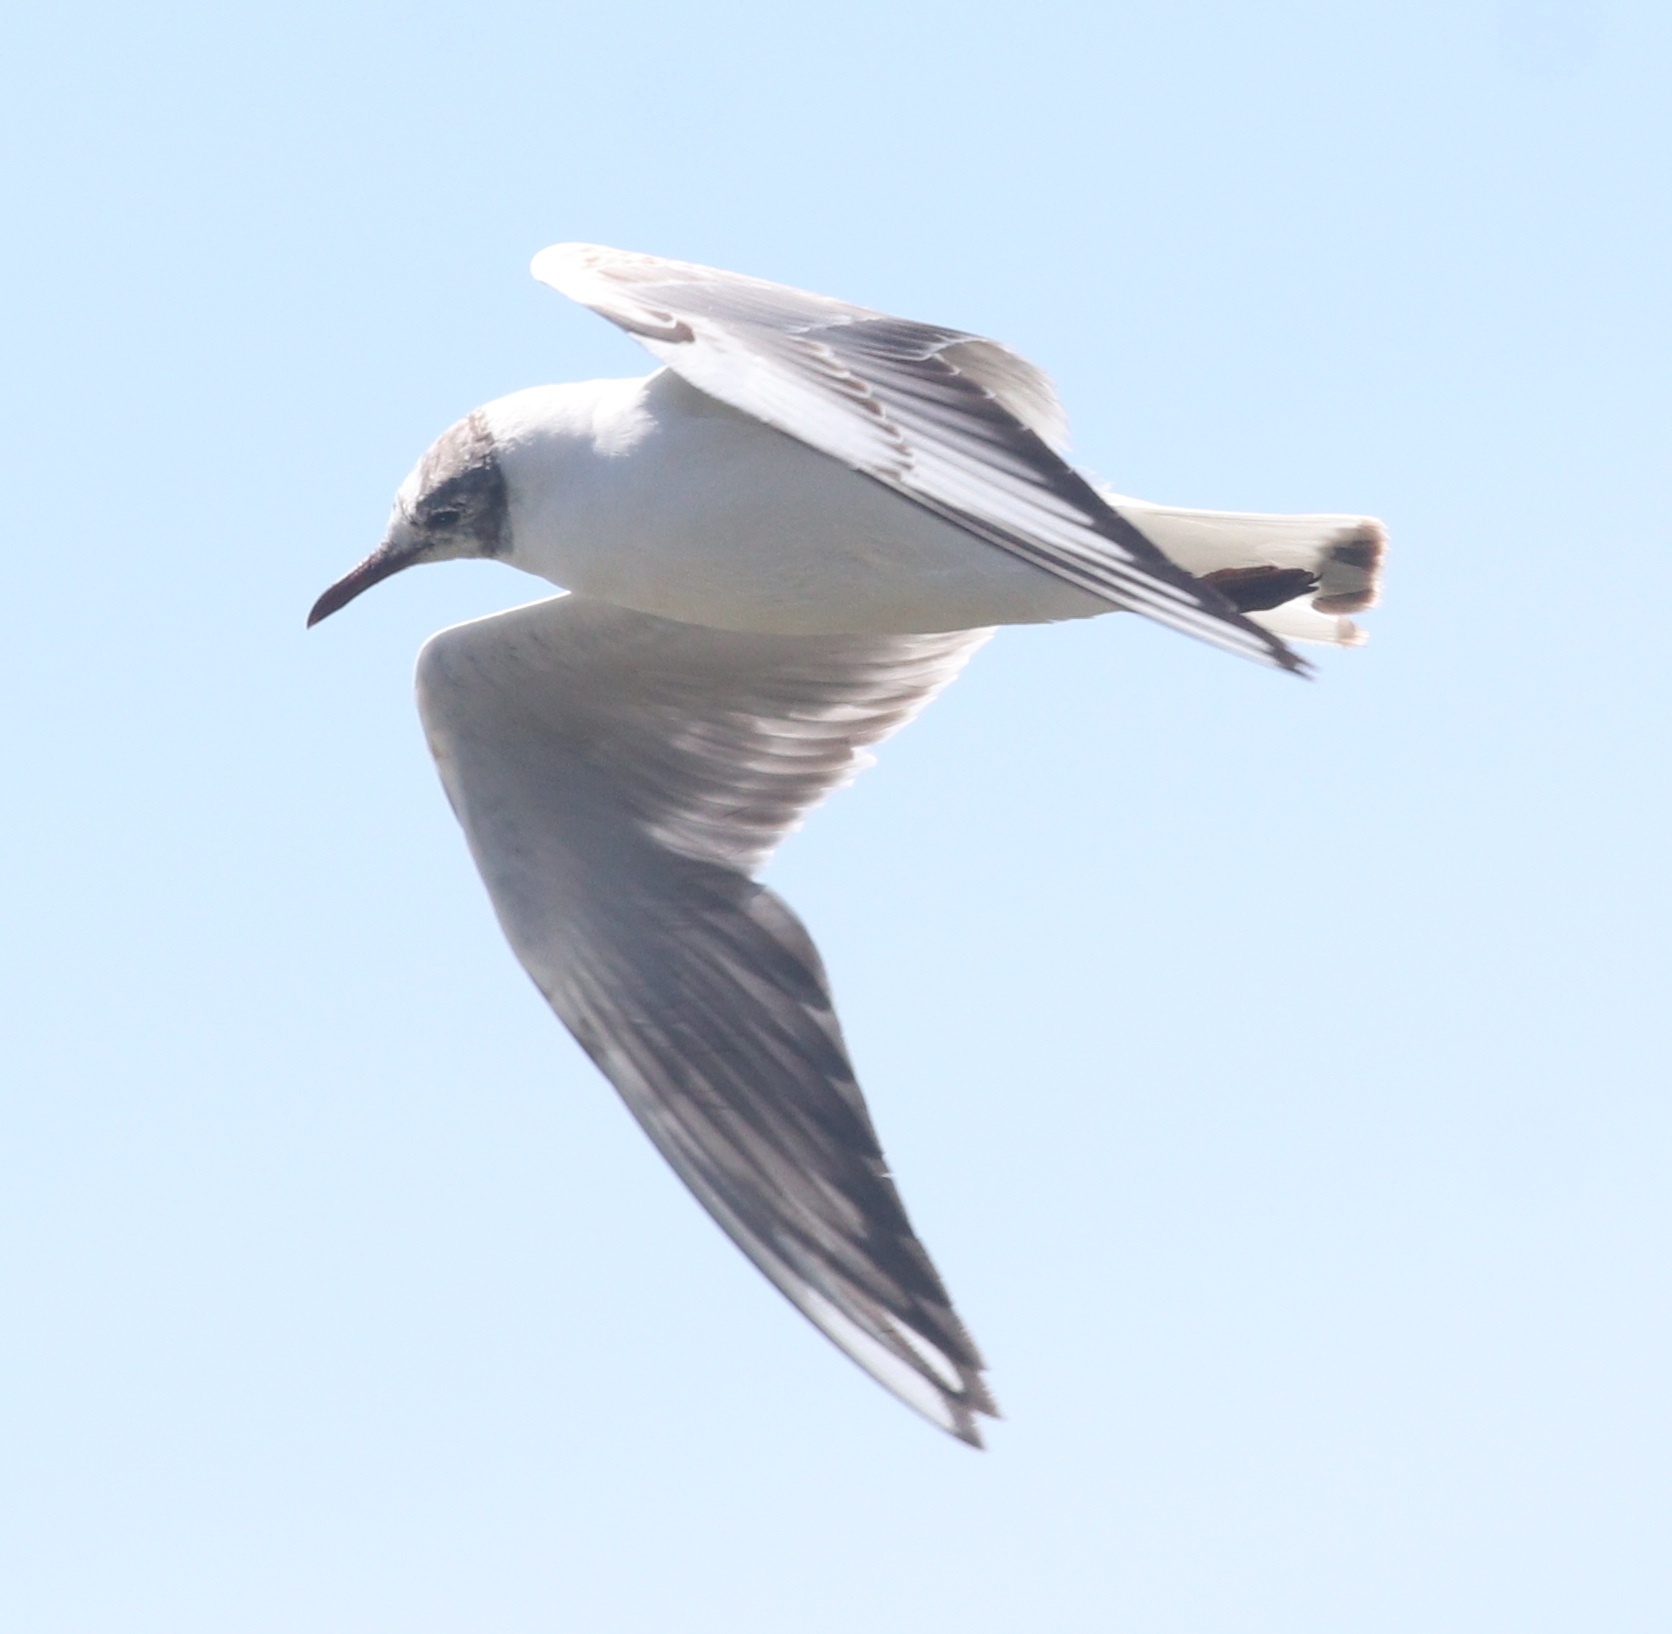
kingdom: Animalia
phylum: Chordata
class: Aves
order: Charadriiformes
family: Laridae
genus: Chroicocephalus
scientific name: Chroicocephalus ridibundus
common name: Black-headed gull
